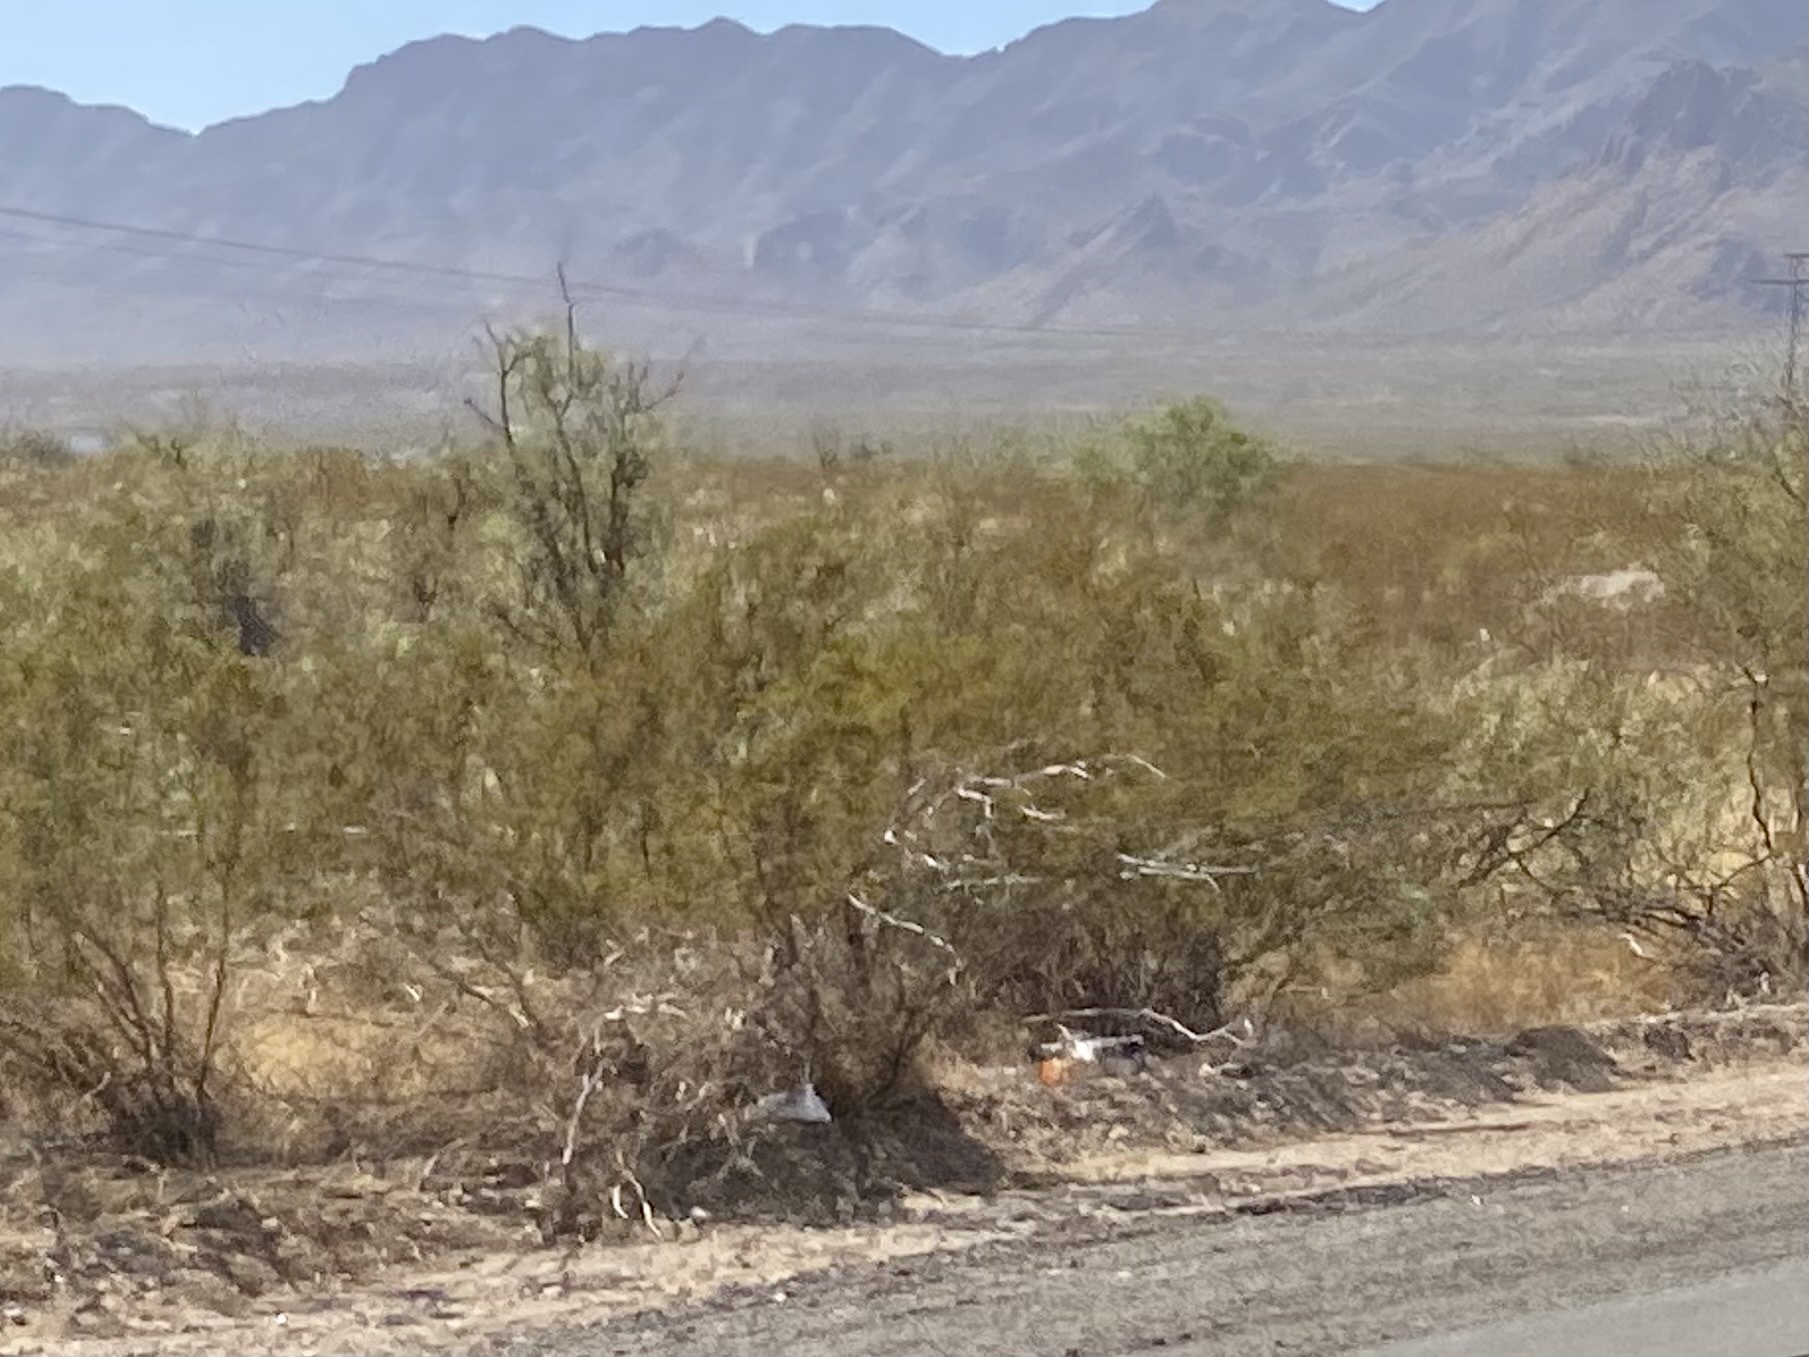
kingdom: Plantae
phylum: Tracheophyta
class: Magnoliopsida
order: Zygophyllales
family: Zygophyllaceae
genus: Larrea
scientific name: Larrea tridentata
